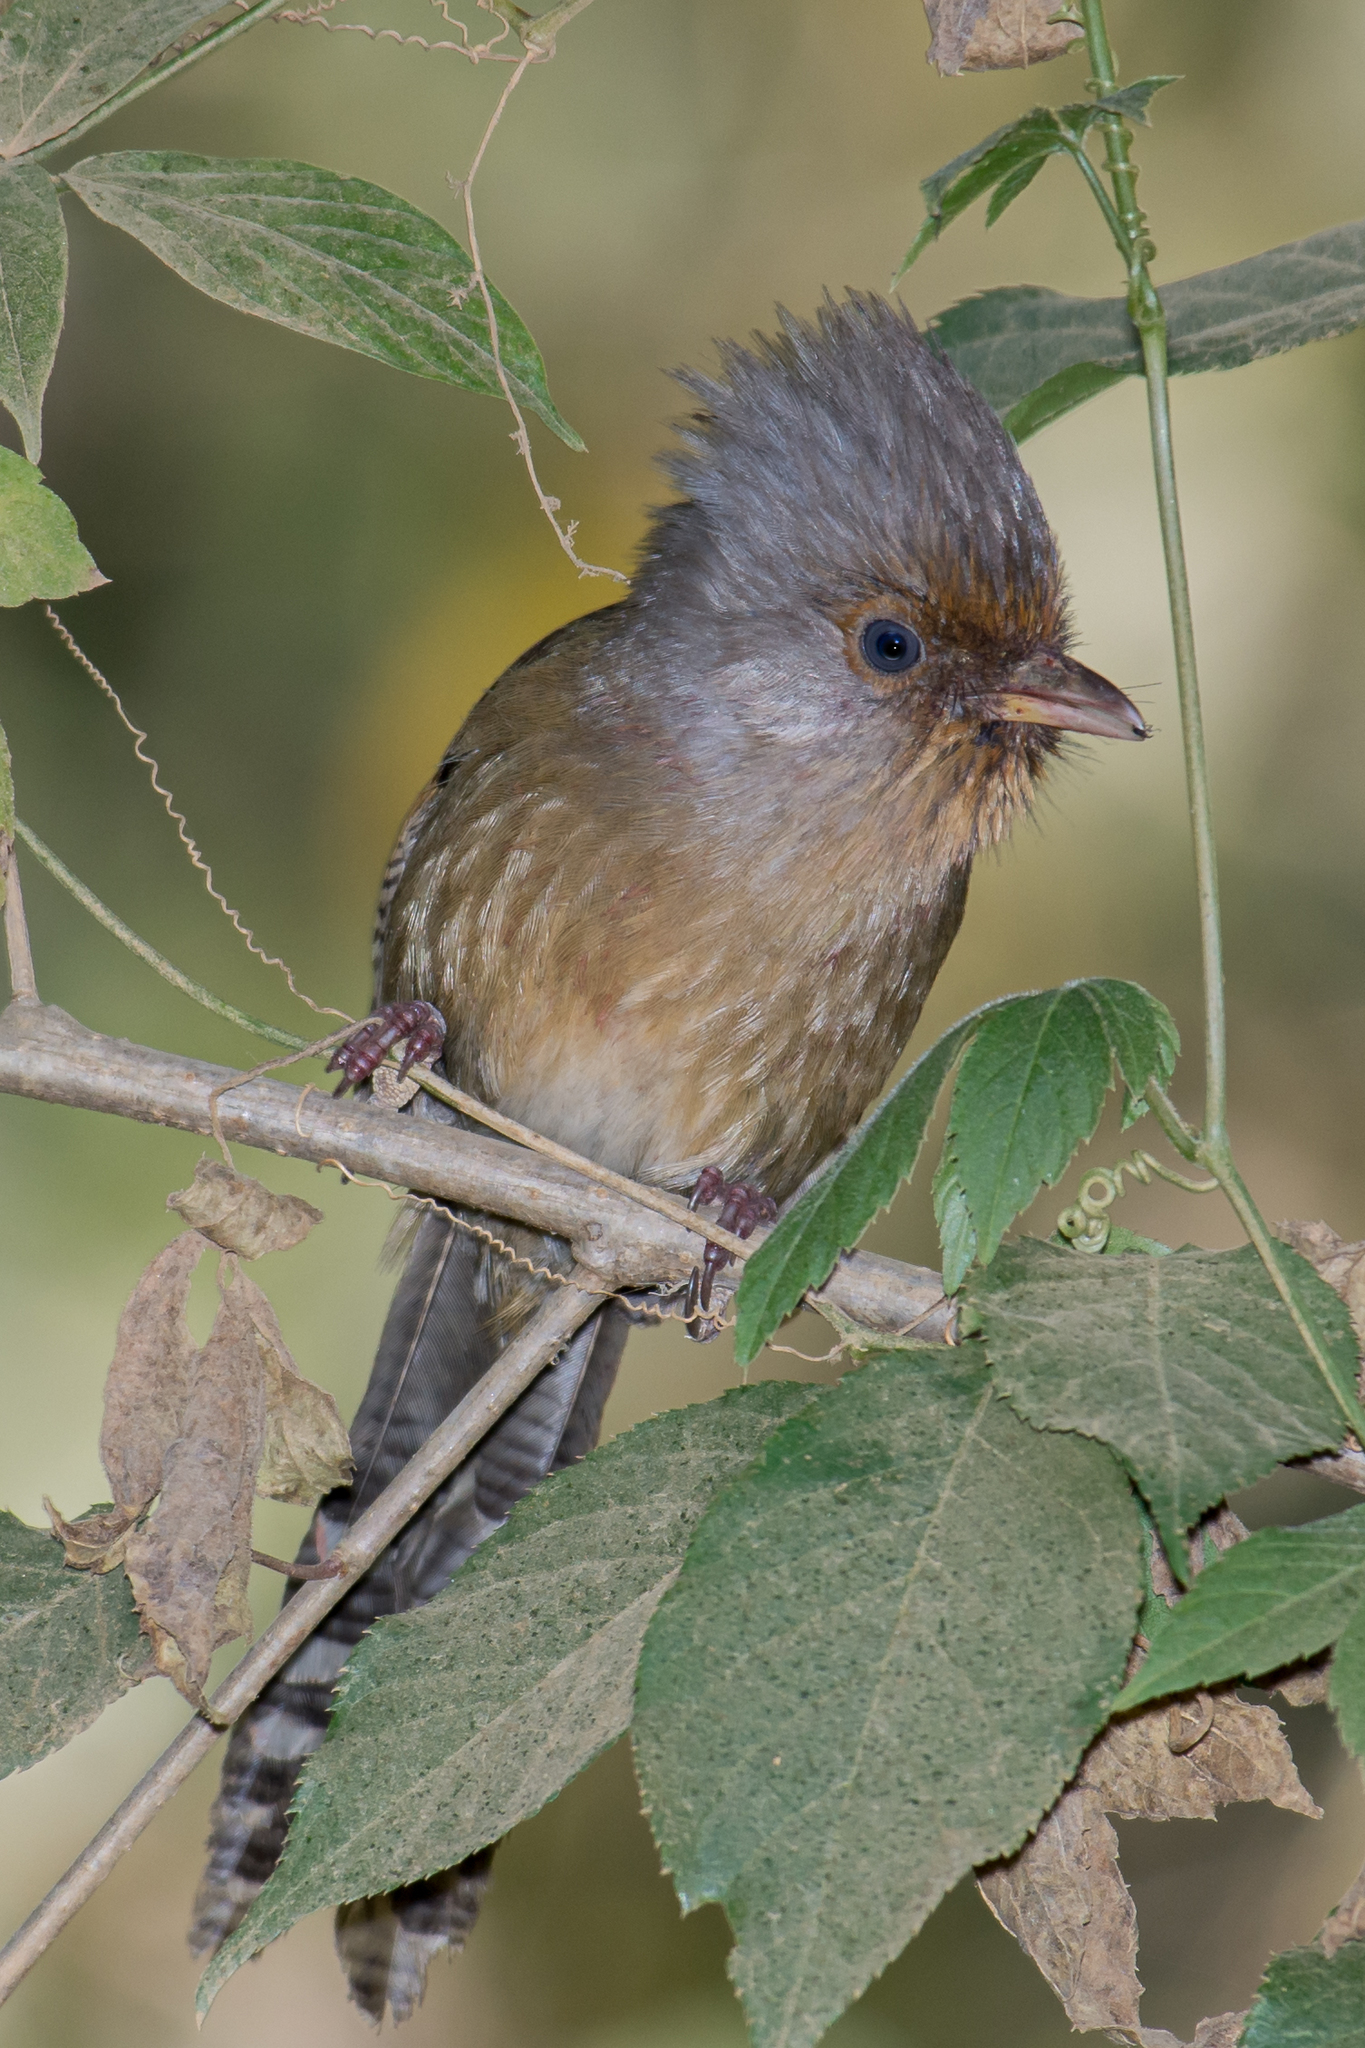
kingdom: Animalia
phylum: Chordata
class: Aves
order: Passeriformes
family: Leiothrichidae
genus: Actinodura
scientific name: Actinodura egertoni
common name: Rusty-fronted barwing
